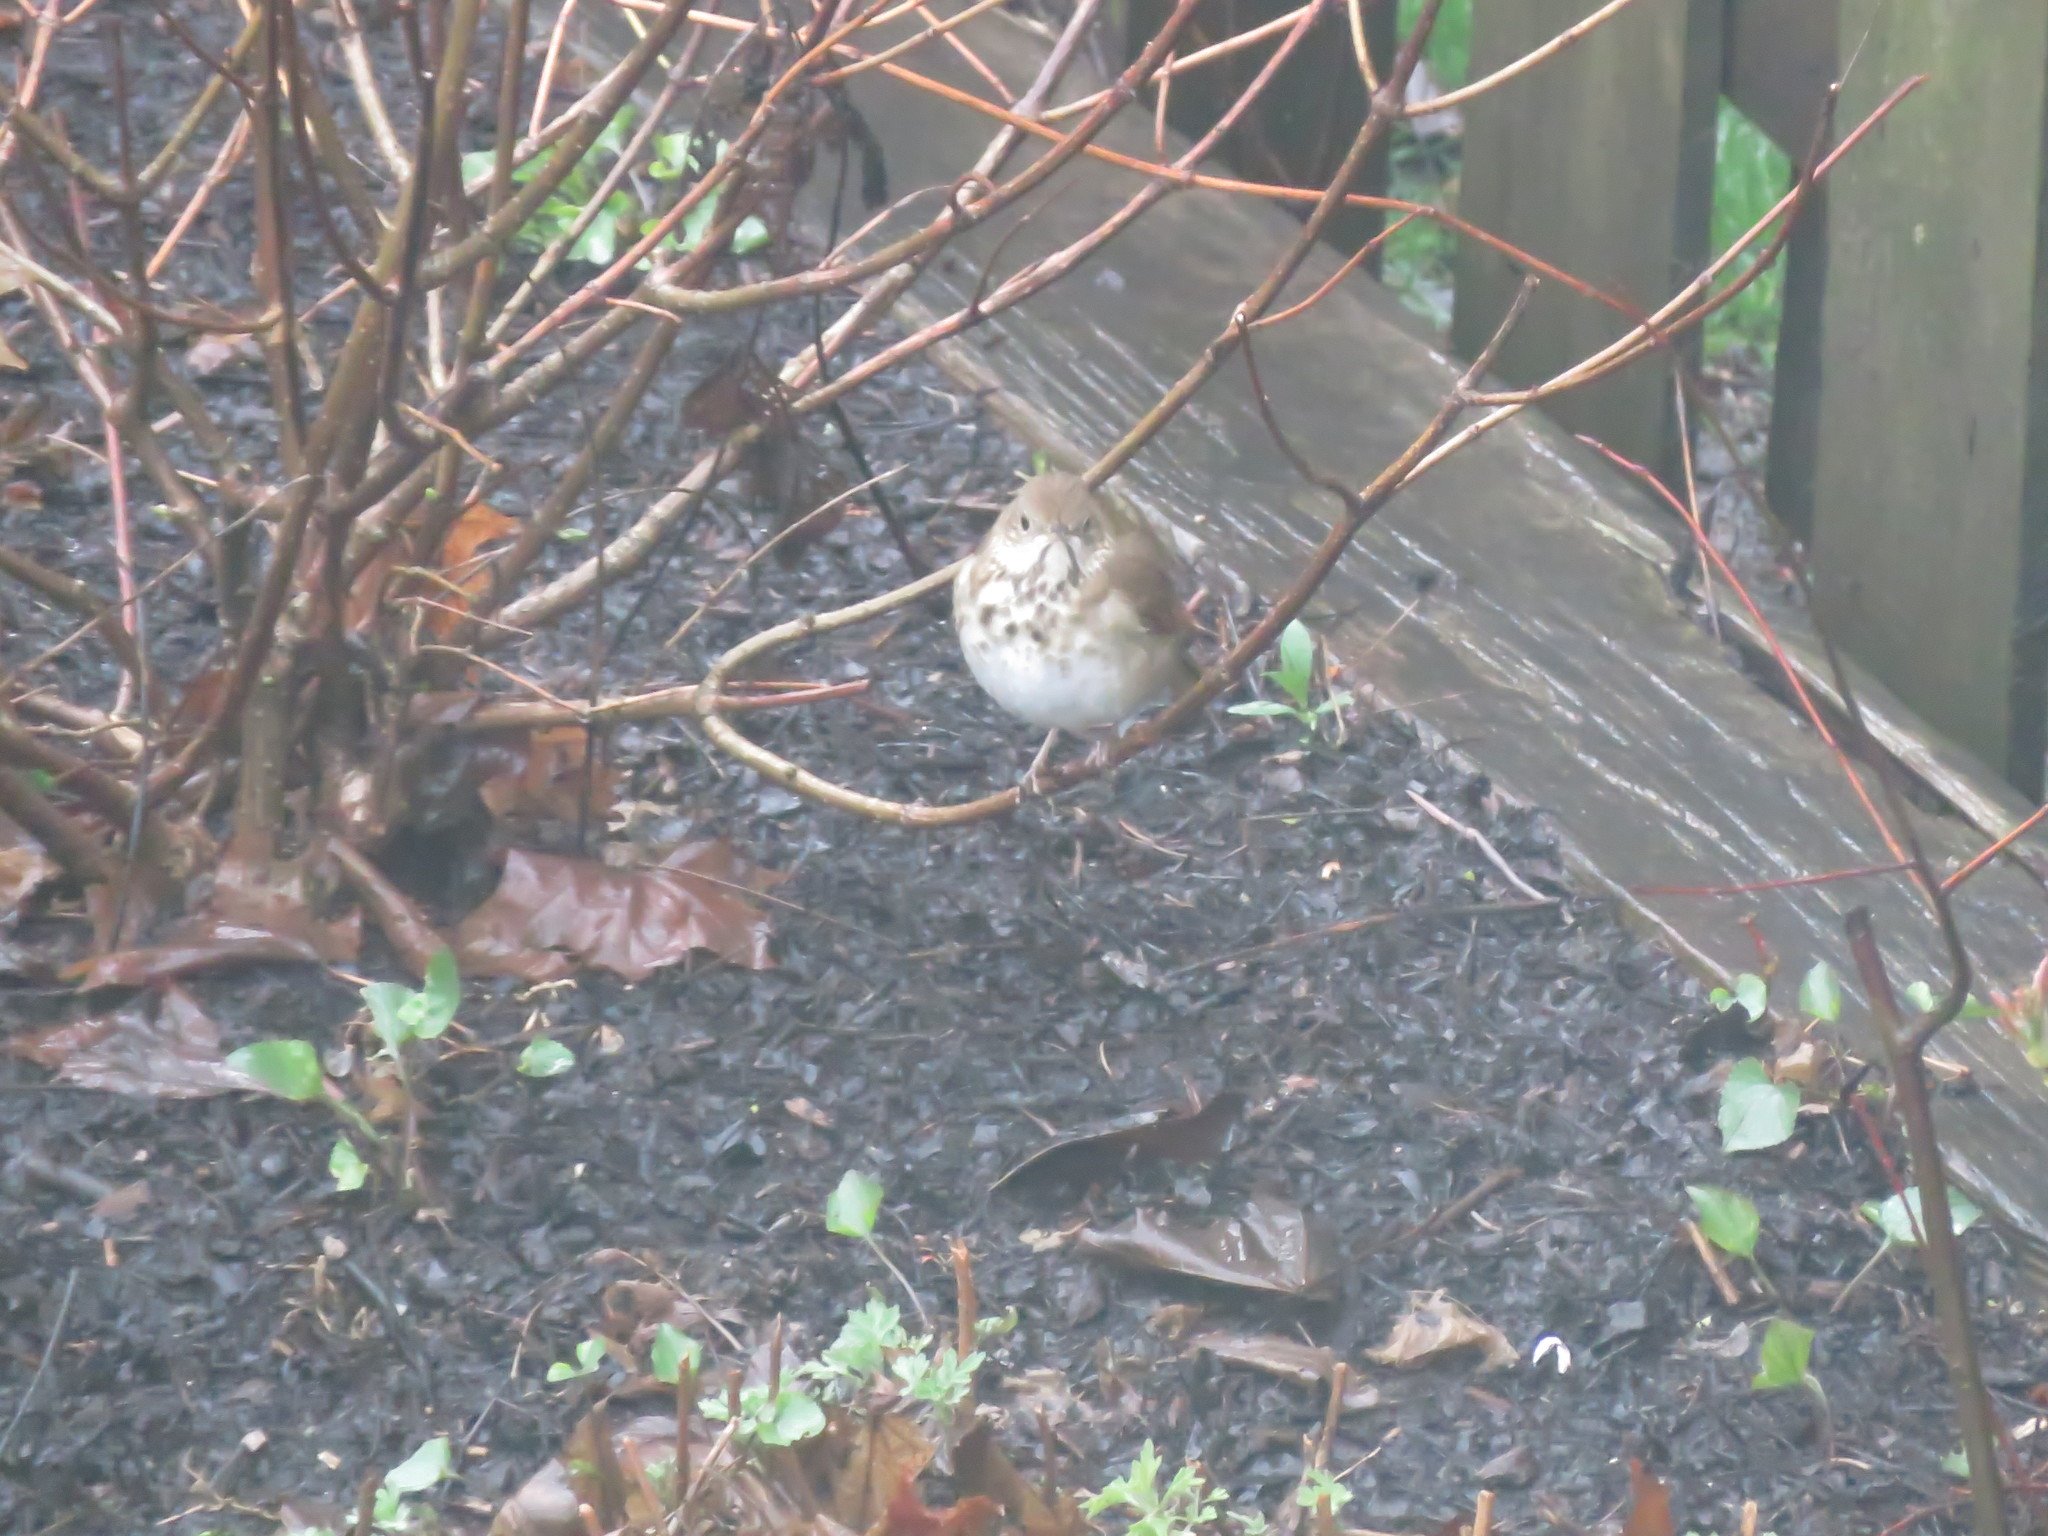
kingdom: Animalia
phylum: Chordata
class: Aves
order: Passeriformes
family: Turdidae
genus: Catharus
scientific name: Catharus guttatus
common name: Hermit thrush
